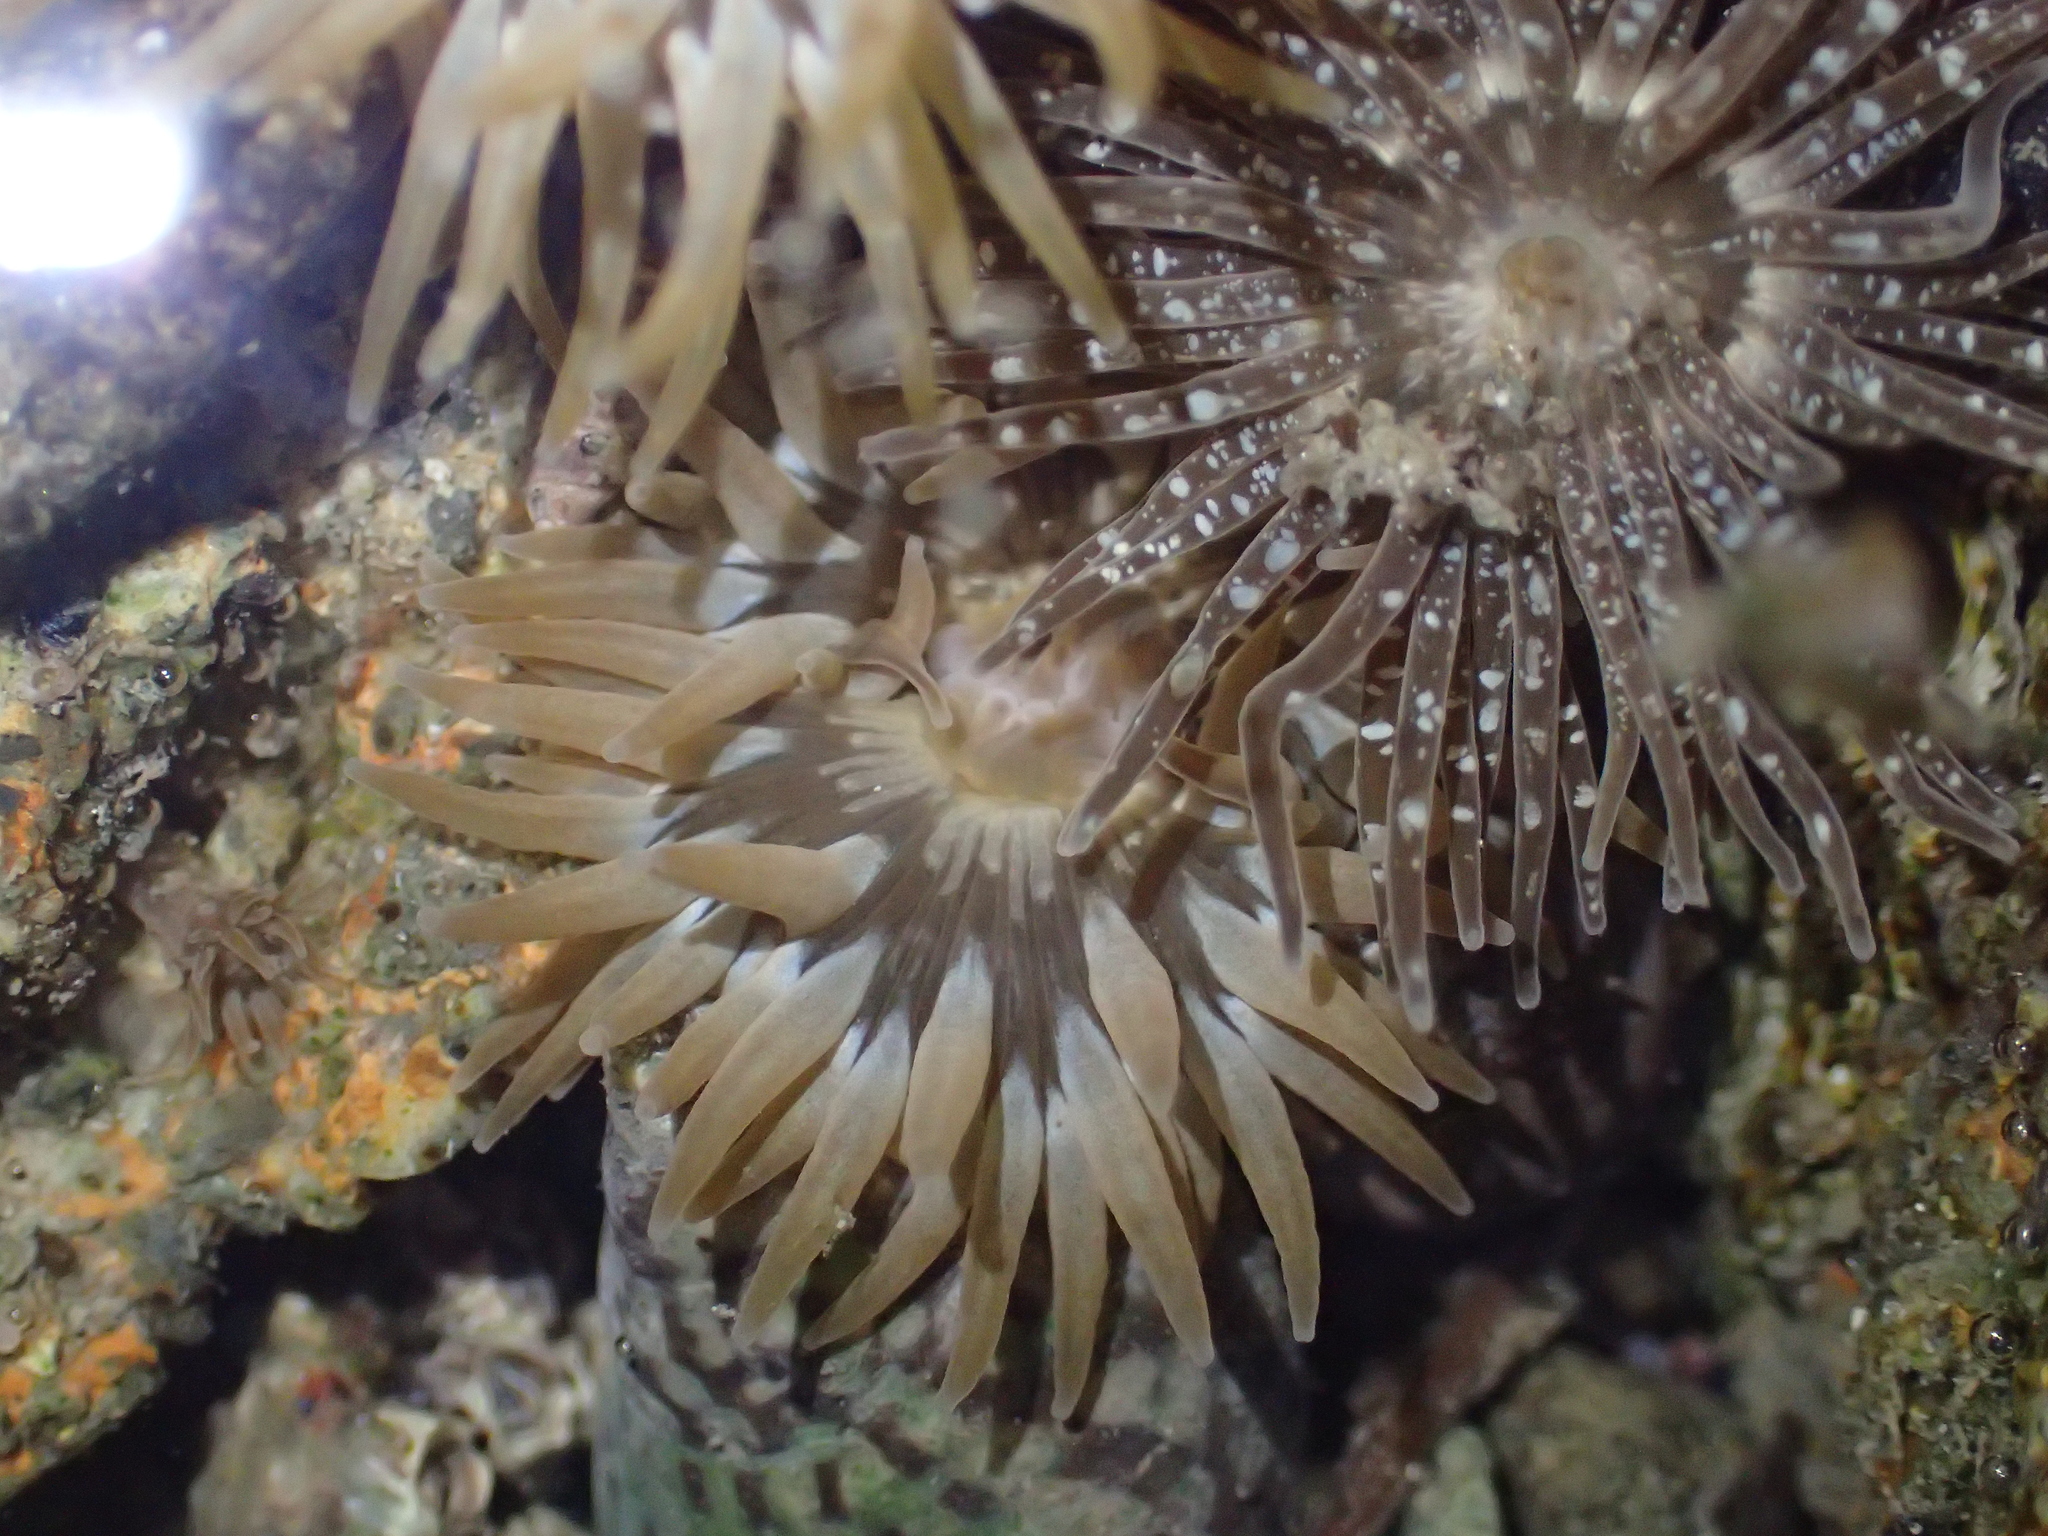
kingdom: Animalia
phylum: Cnidaria
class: Anthozoa
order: Actiniaria
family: Actiniidae
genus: Anthopleura
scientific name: Anthopleura hermaphroditica
